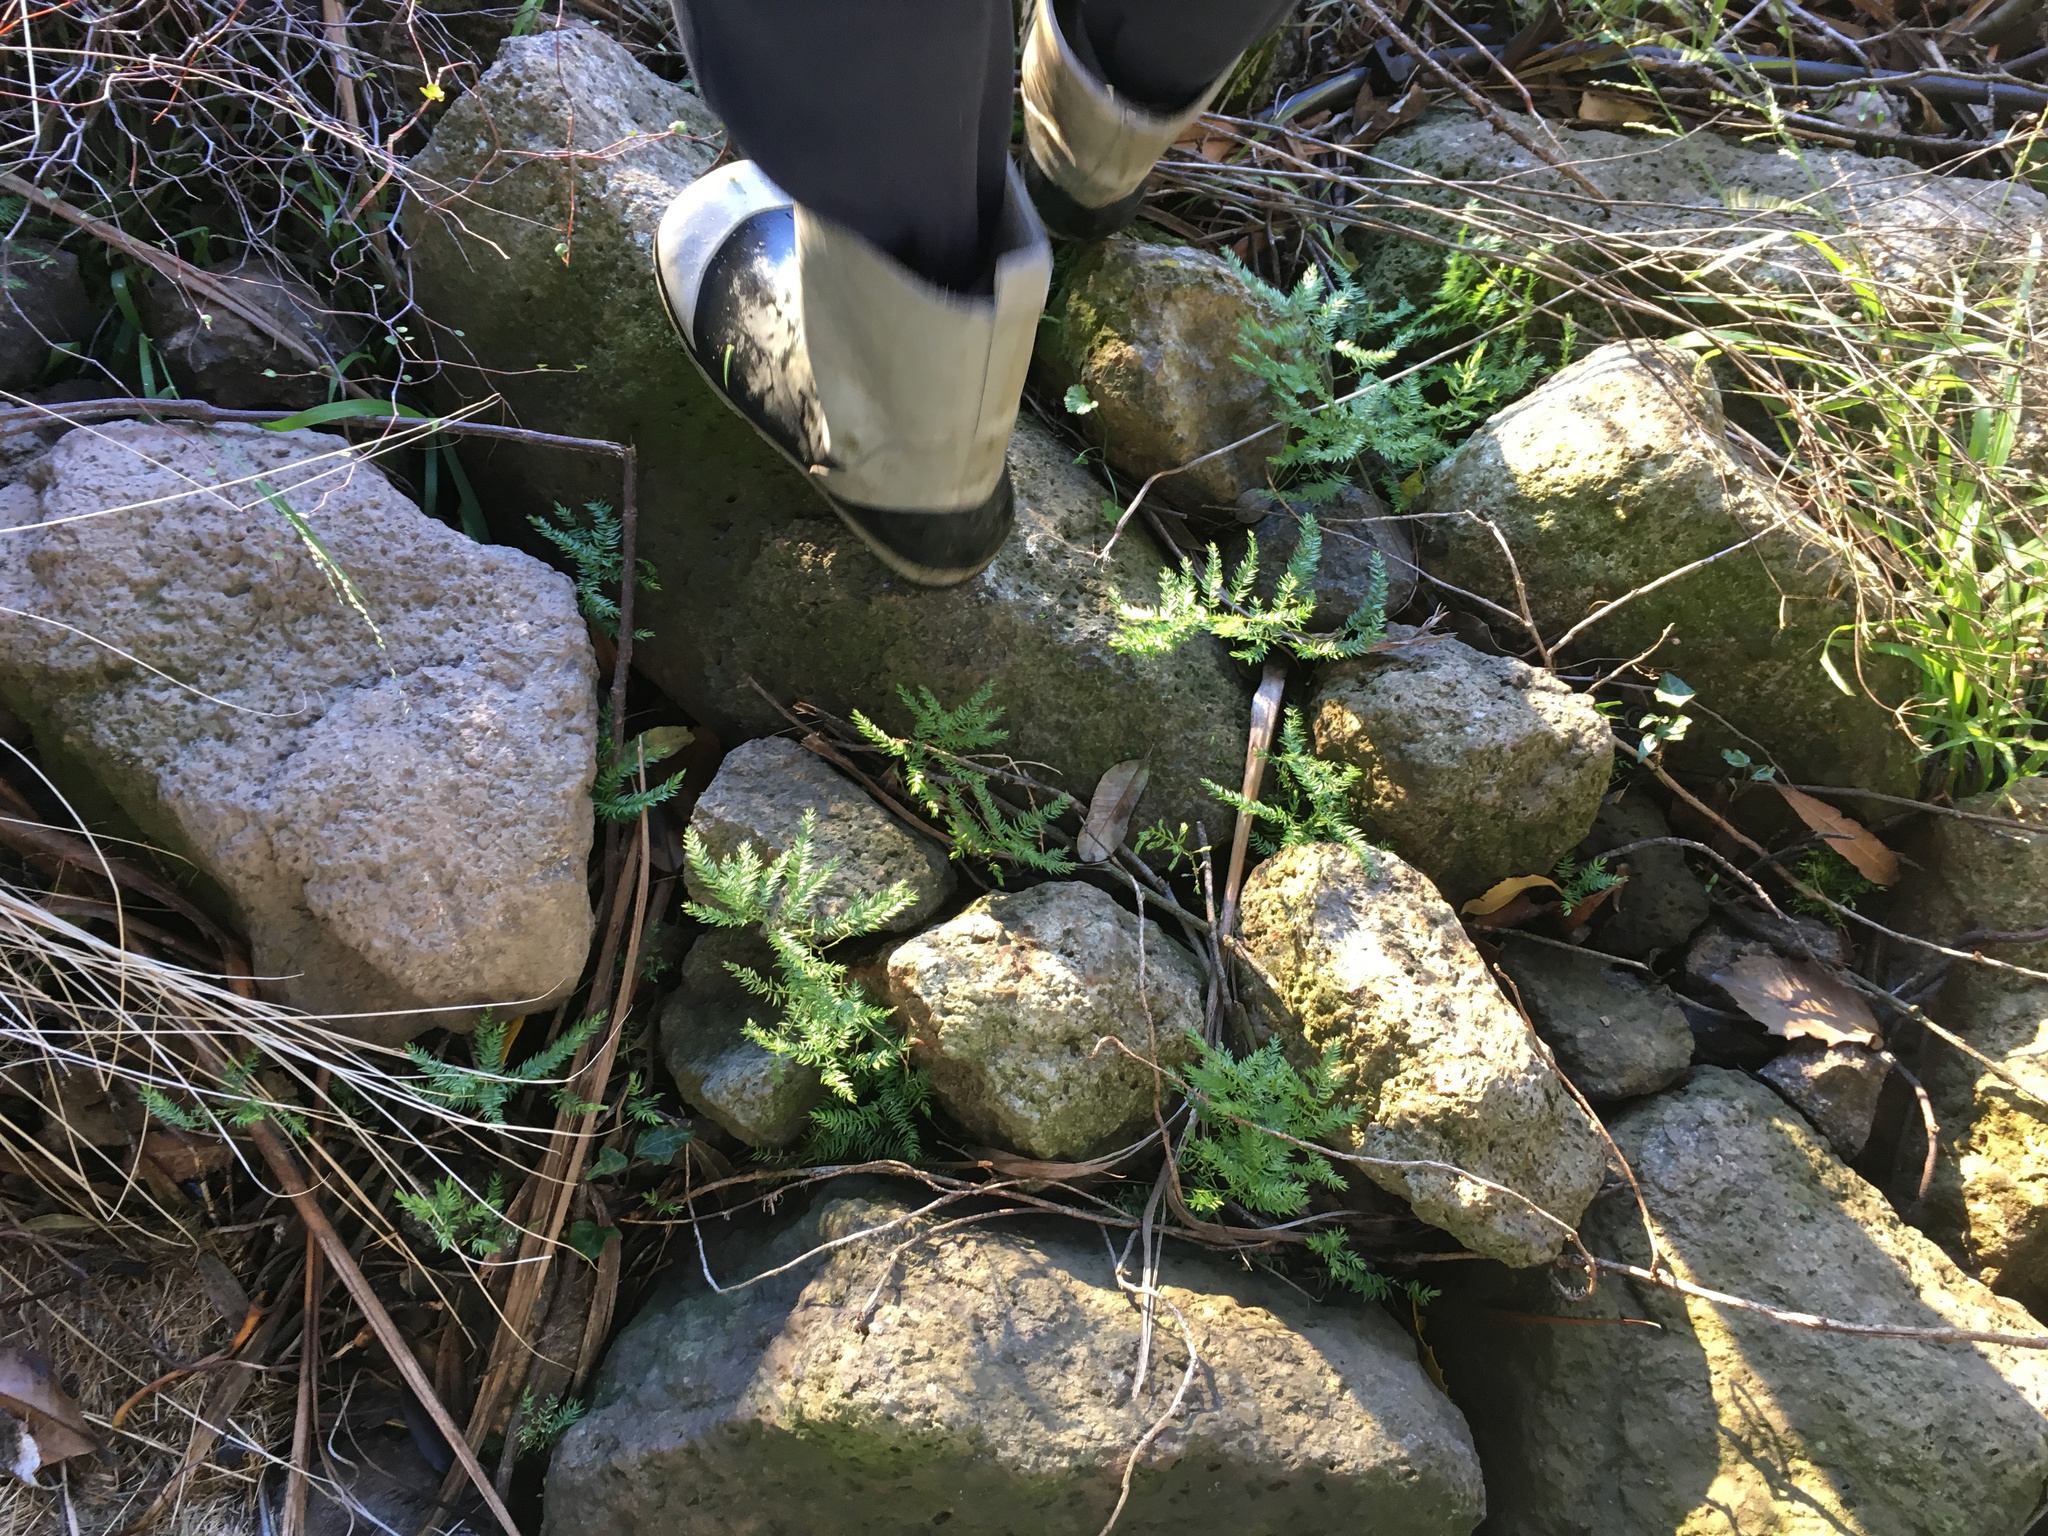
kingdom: Plantae
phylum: Tracheophyta
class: Liliopsida
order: Asparagales
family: Asparagaceae
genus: Asparagus
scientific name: Asparagus scandens
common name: Asparagus-fern
